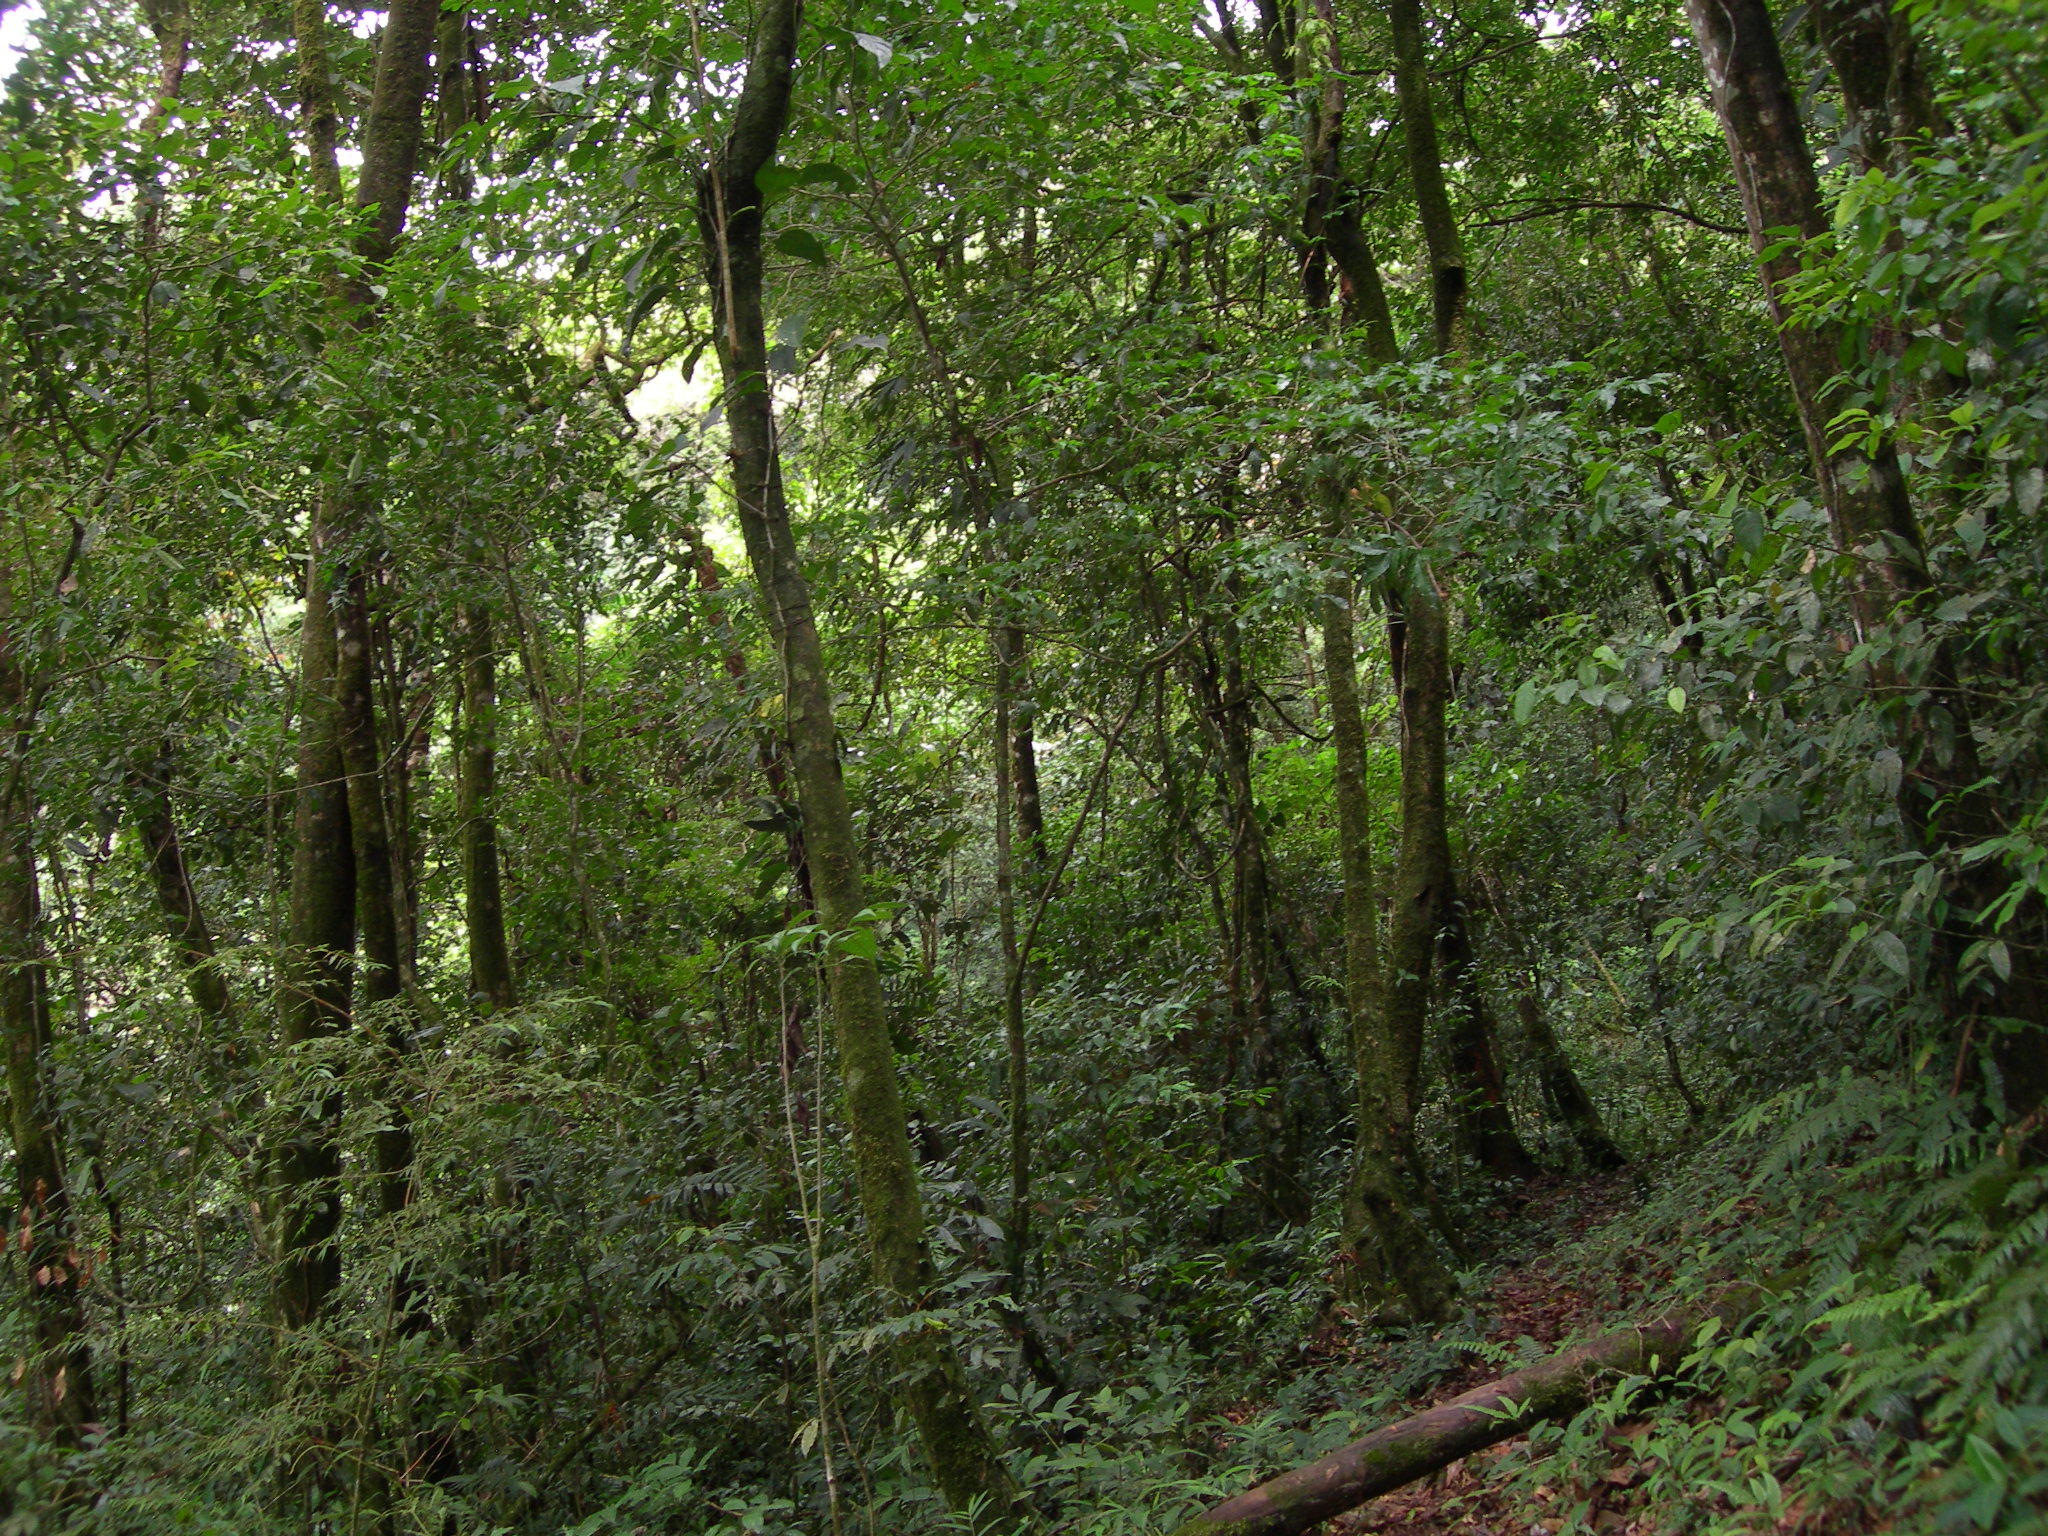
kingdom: Plantae
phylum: Tracheophyta
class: Magnoliopsida
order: Fagales
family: Fagaceae
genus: Quercus
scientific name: Quercus corrugata
